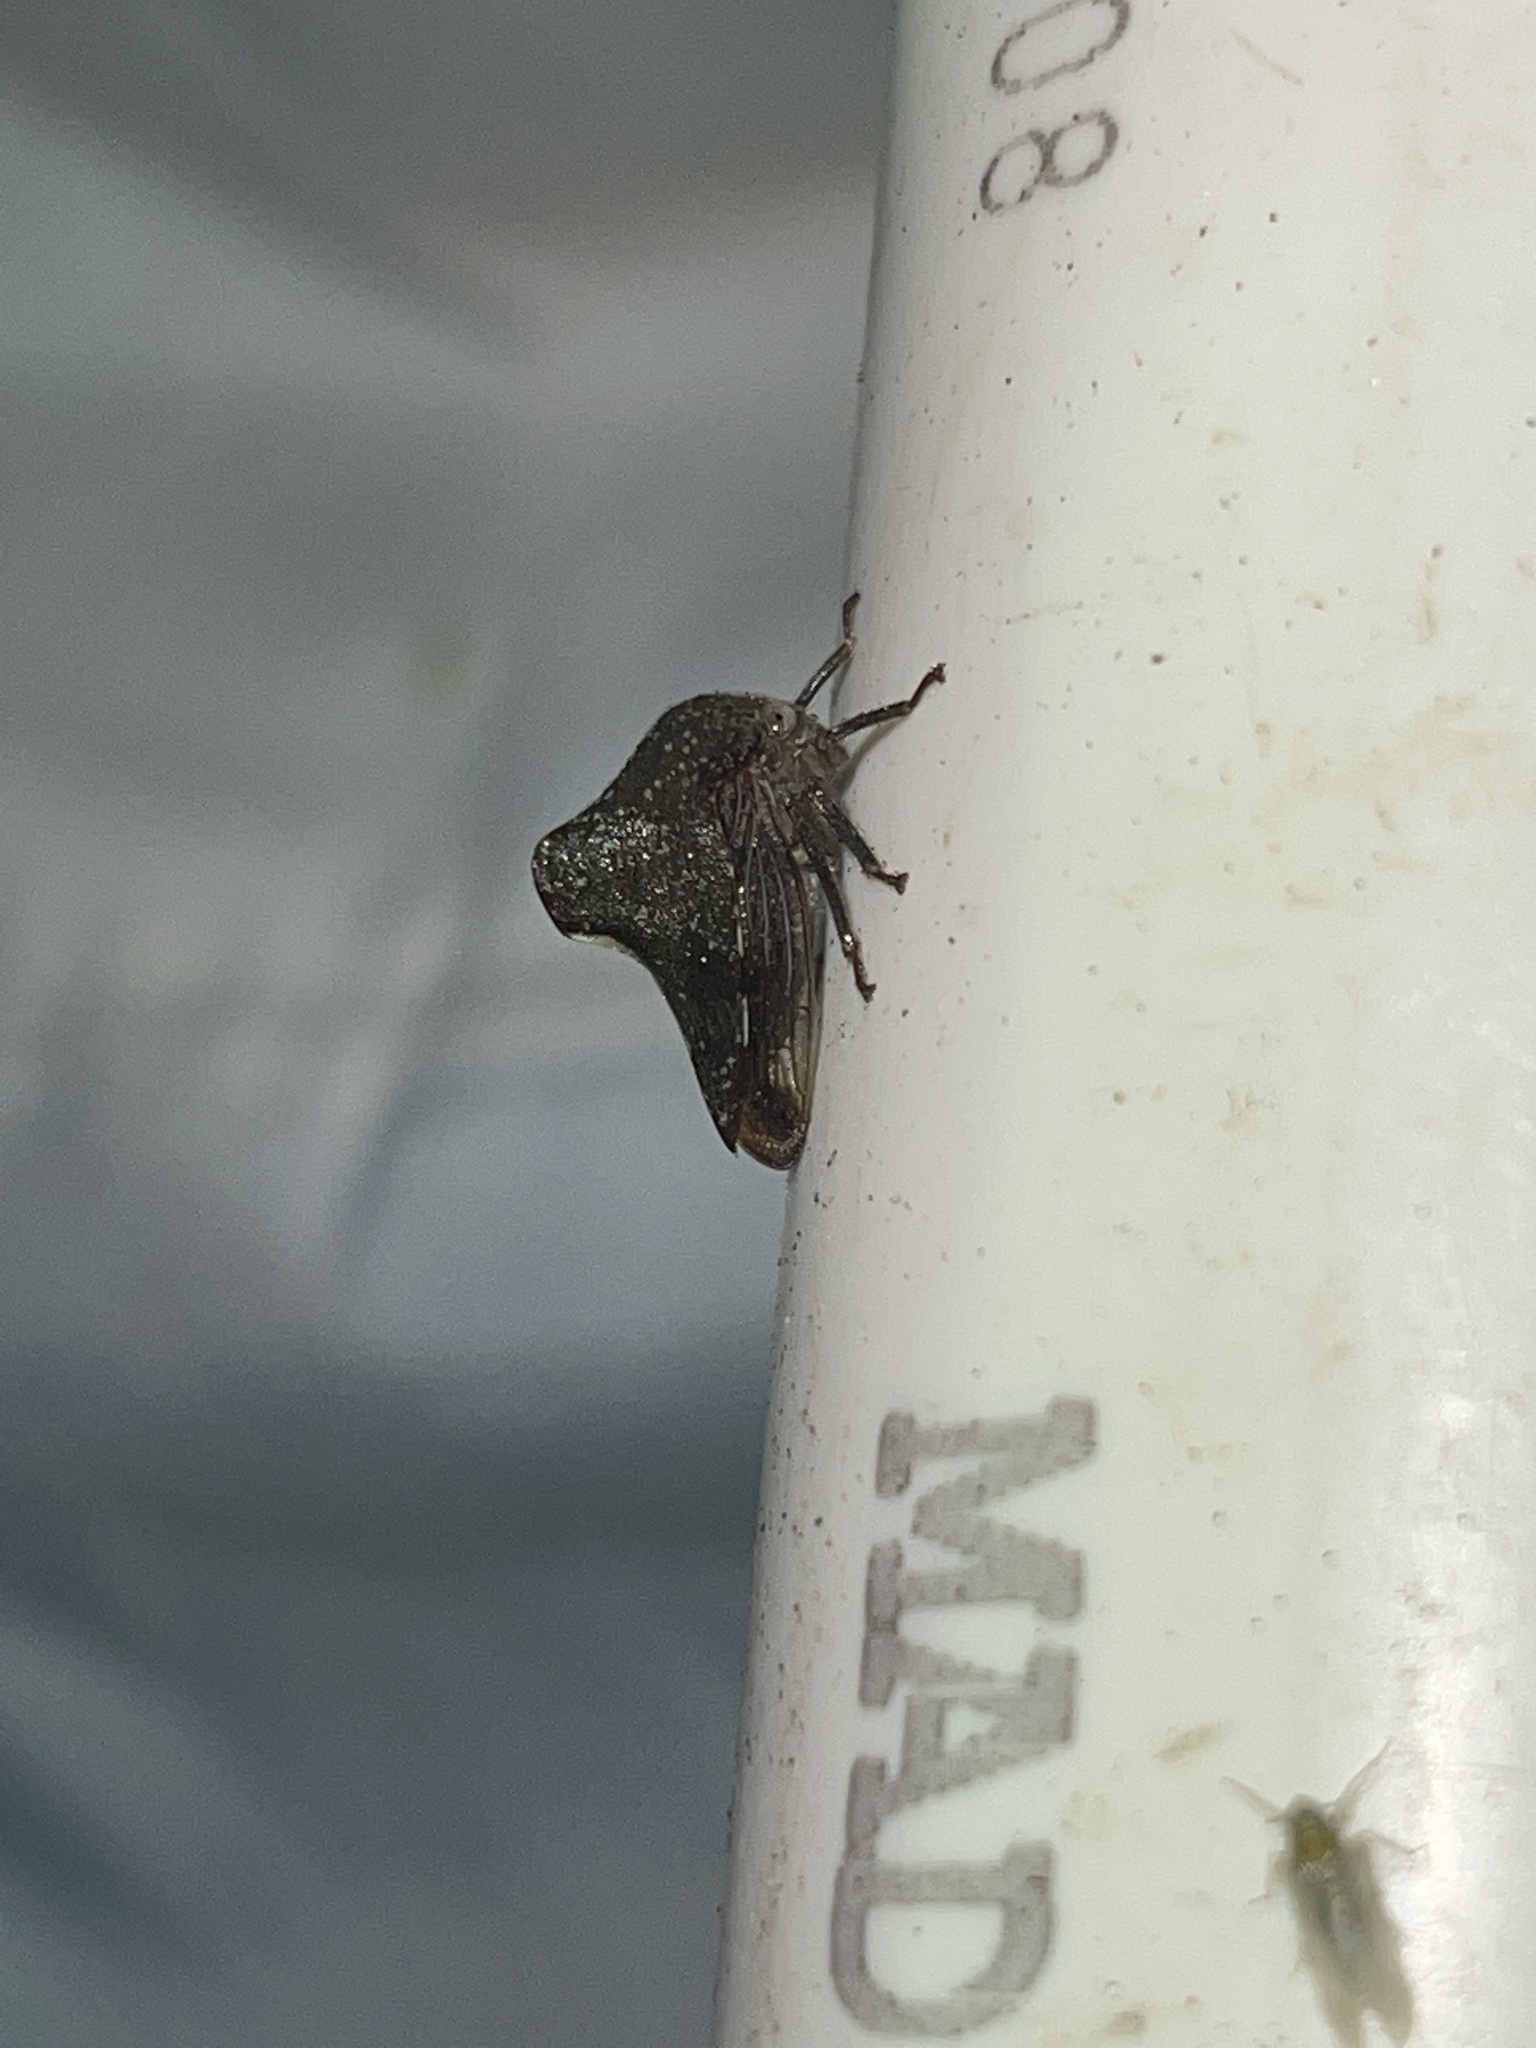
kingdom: Animalia
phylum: Arthropoda
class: Insecta
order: Hemiptera
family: Membracidae
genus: Telamona
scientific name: Telamona monticola
